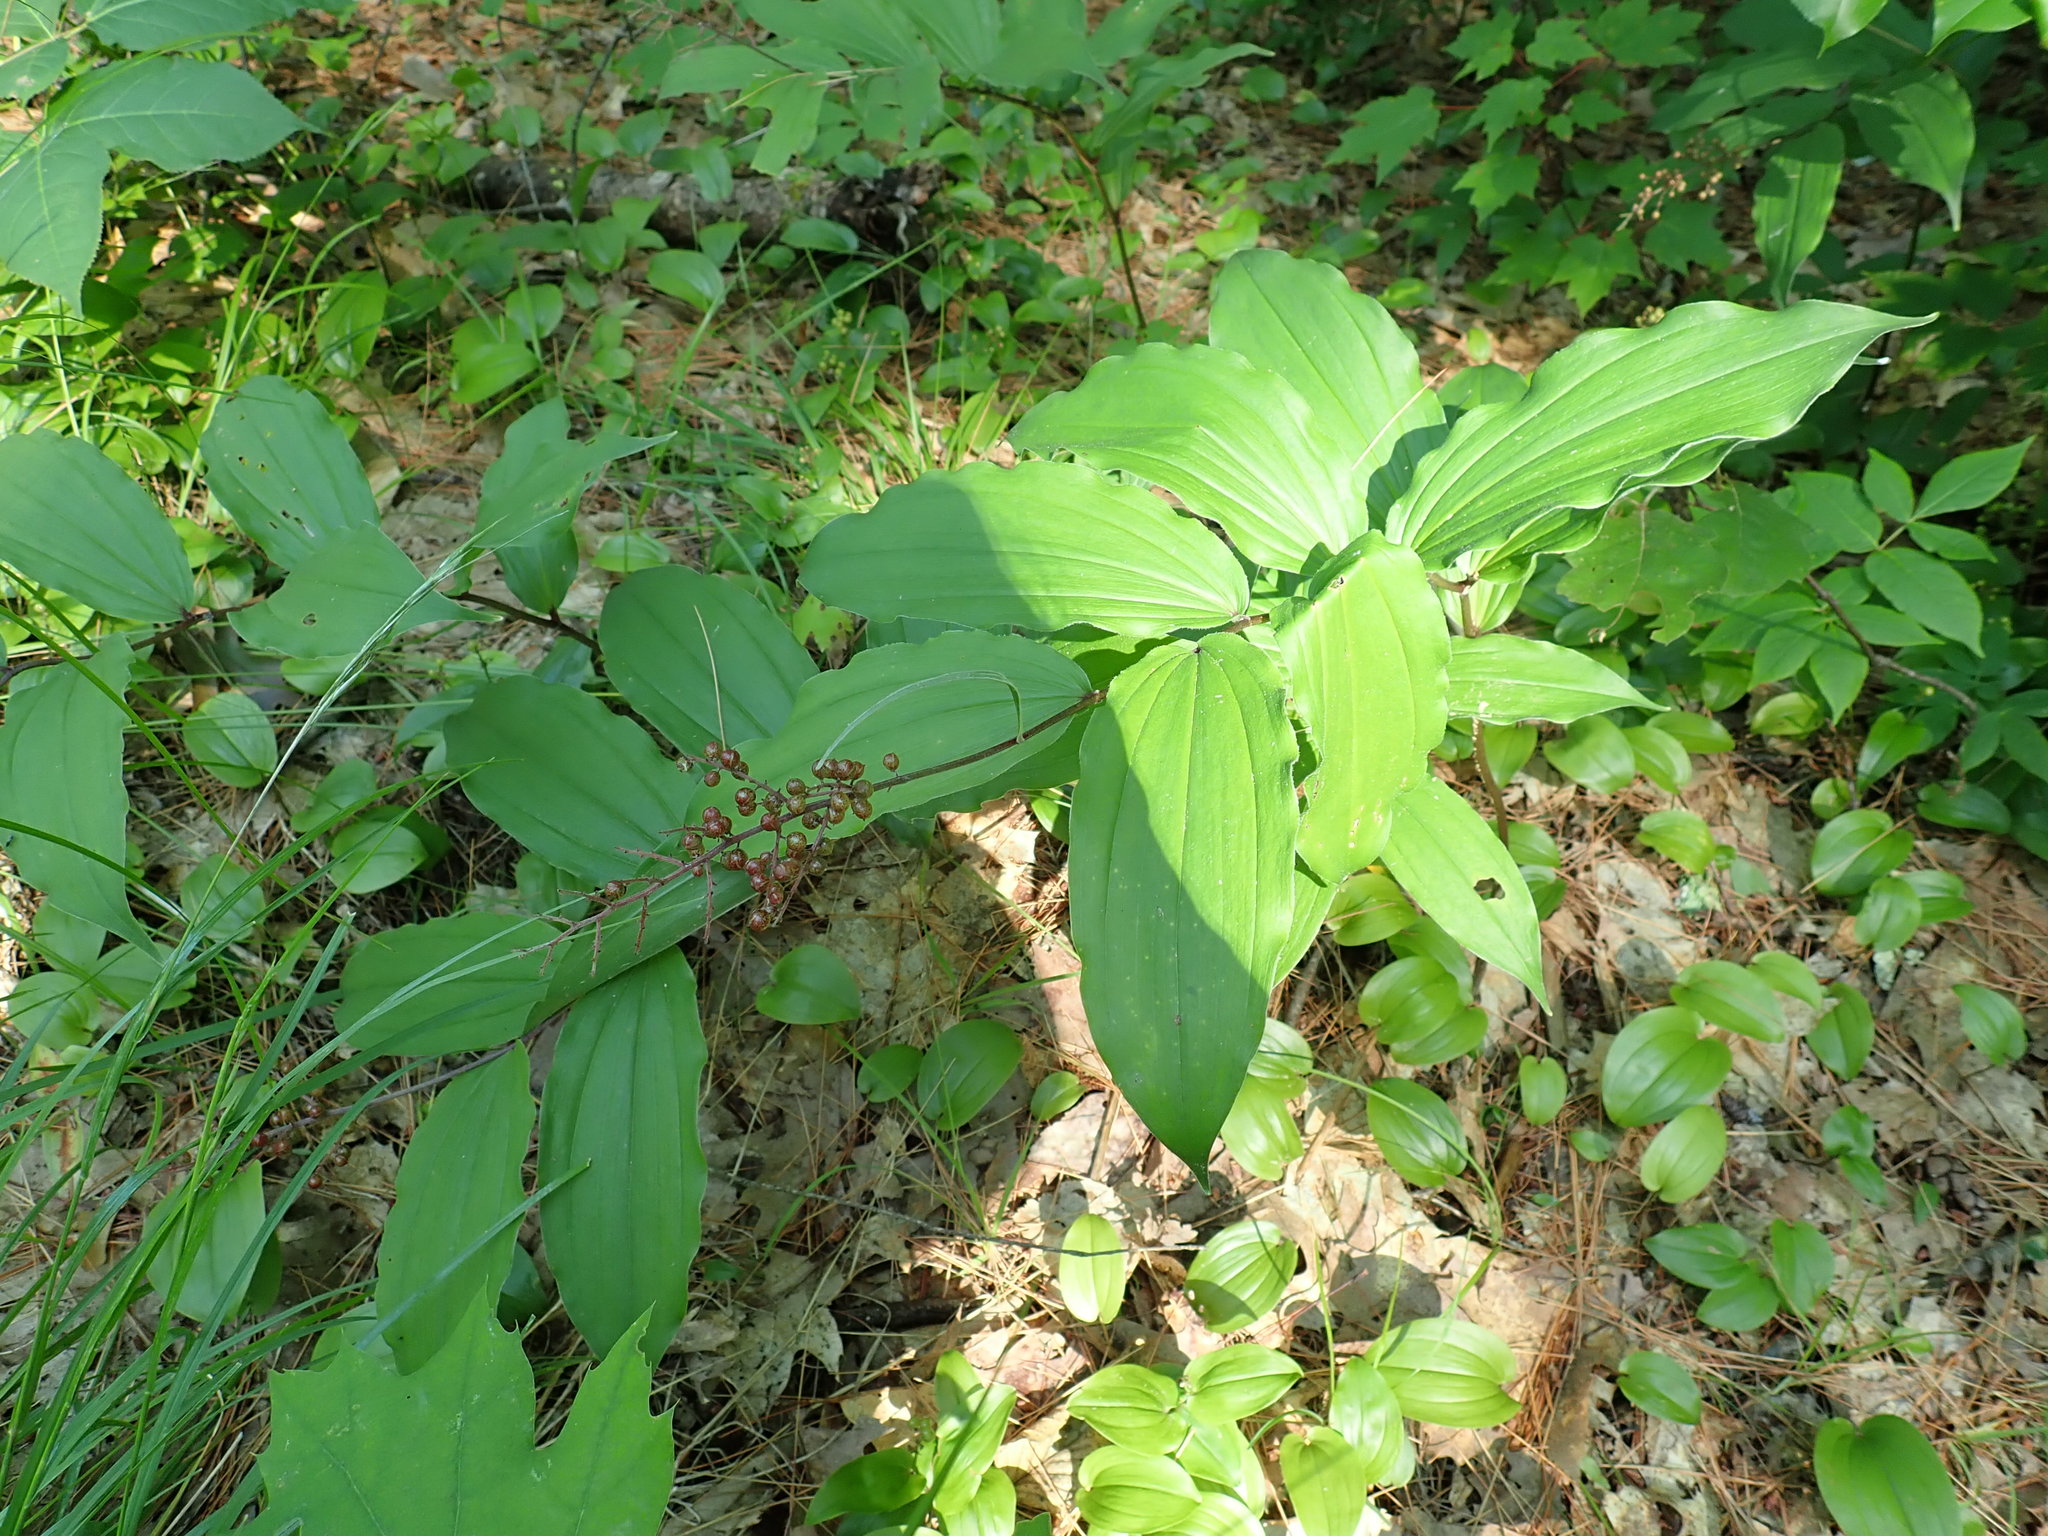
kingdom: Plantae
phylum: Tracheophyta
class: Liliopsida
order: Asparagales
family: Asparagaceae
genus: Maianthemum
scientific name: Maianthemum racemosum
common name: False spikenard
